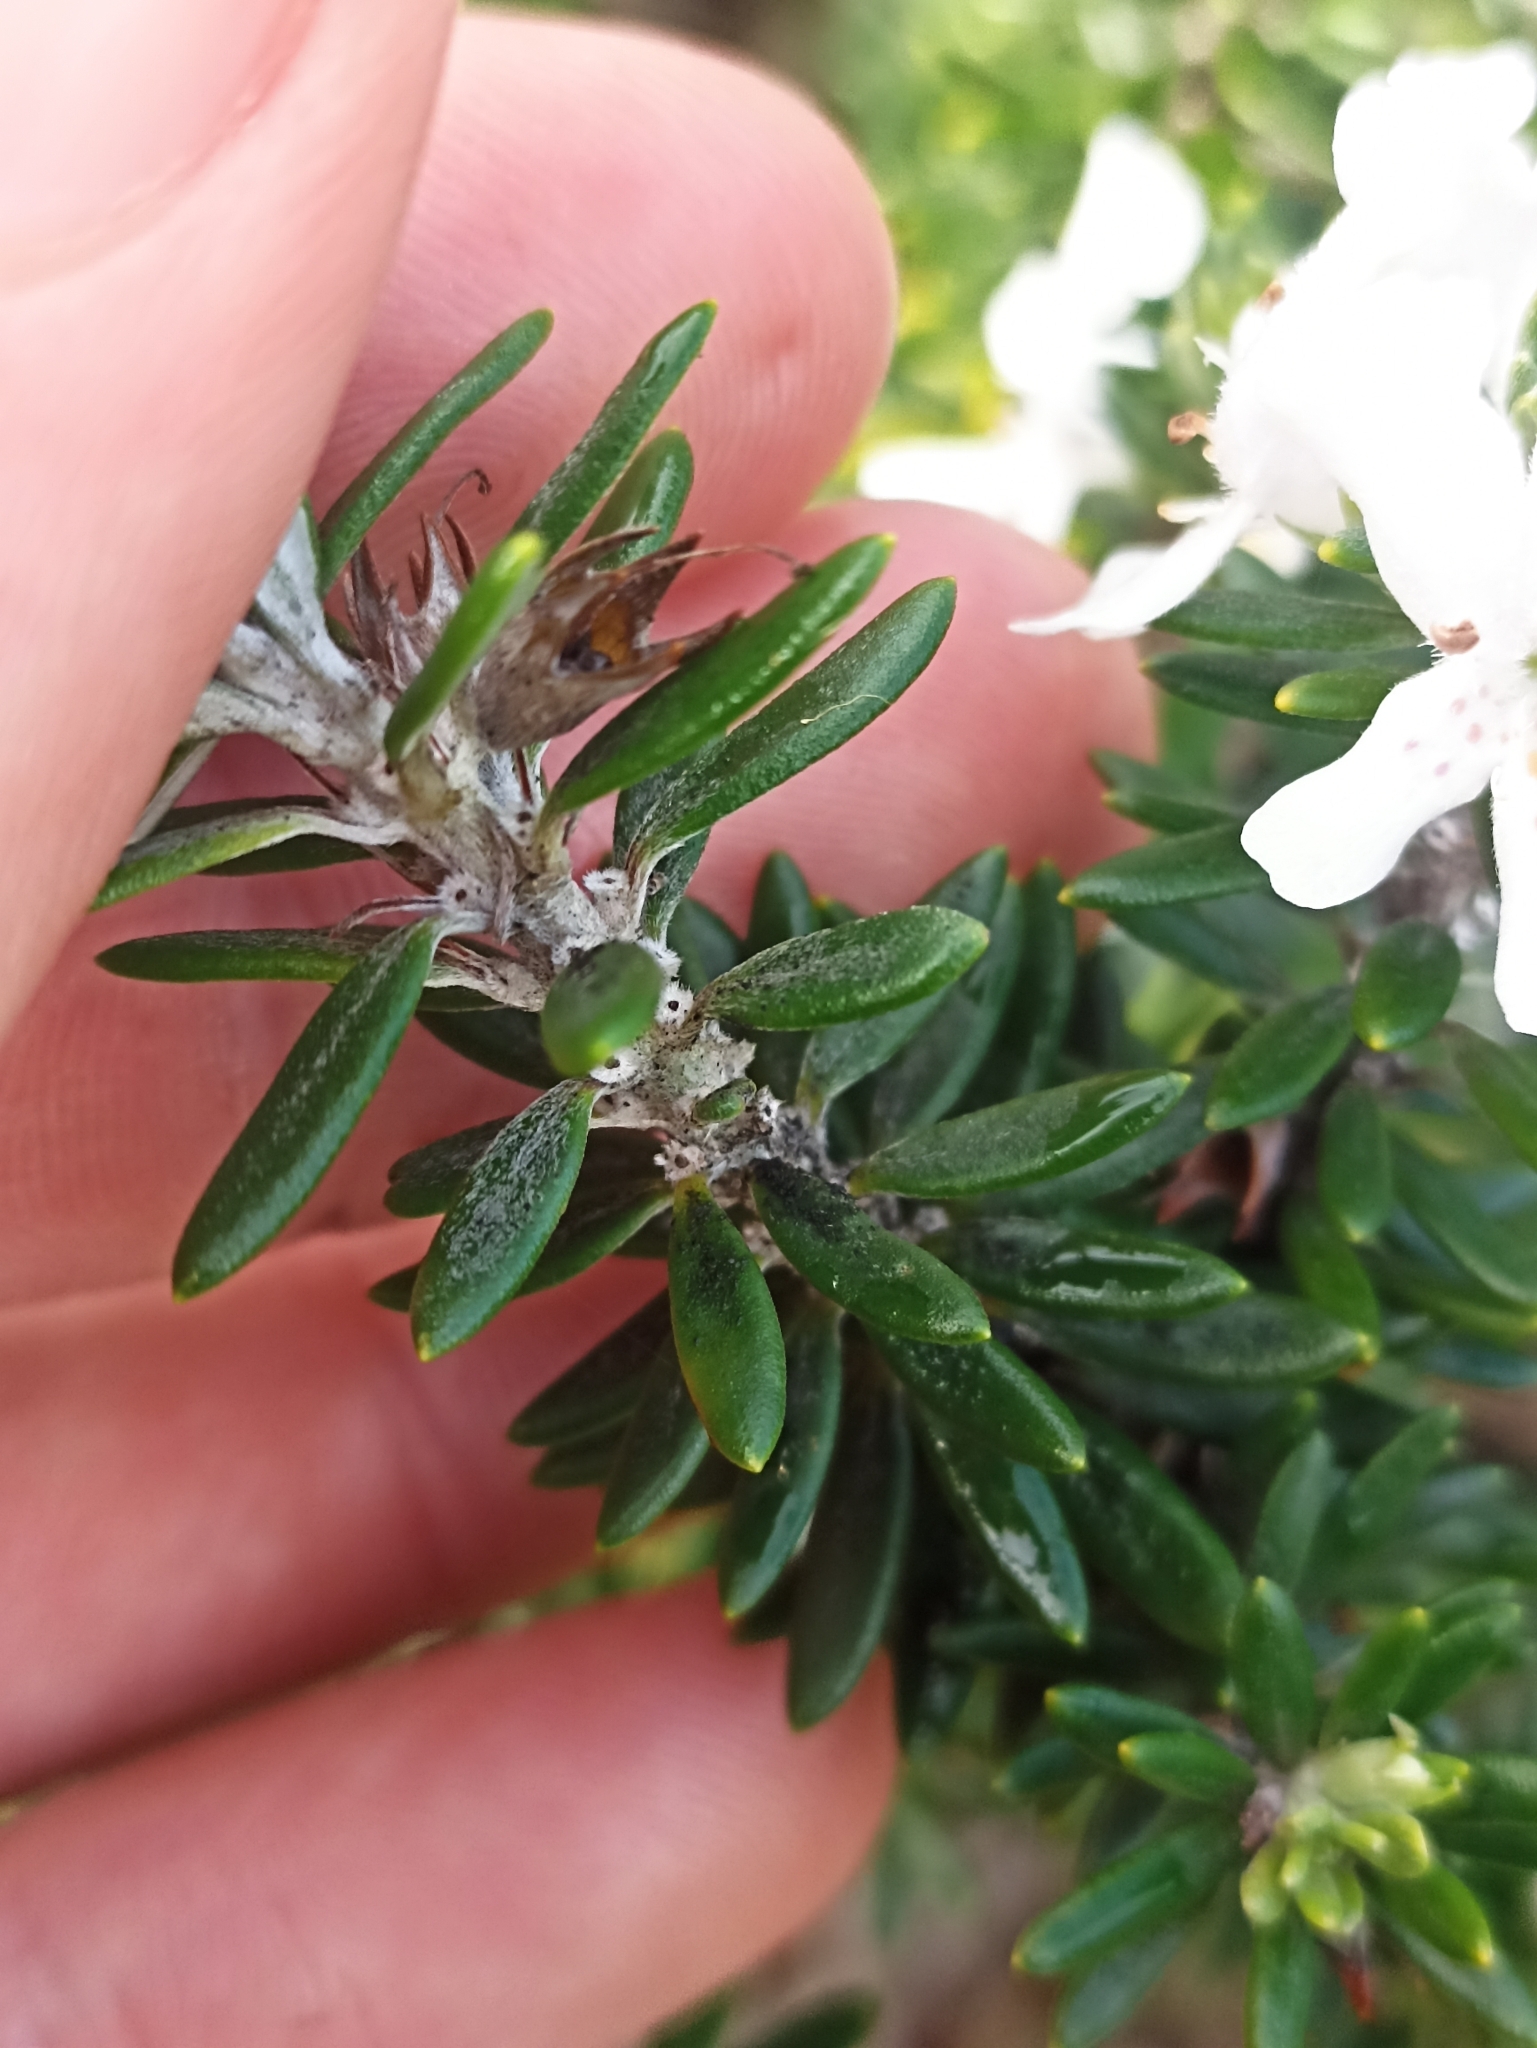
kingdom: Plantae
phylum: Tracheophyta
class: Magnoliopsida
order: Lamiales
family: Lamiaceae
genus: Westringia
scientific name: Westringia fruticosa
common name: Coastal-rosemary
